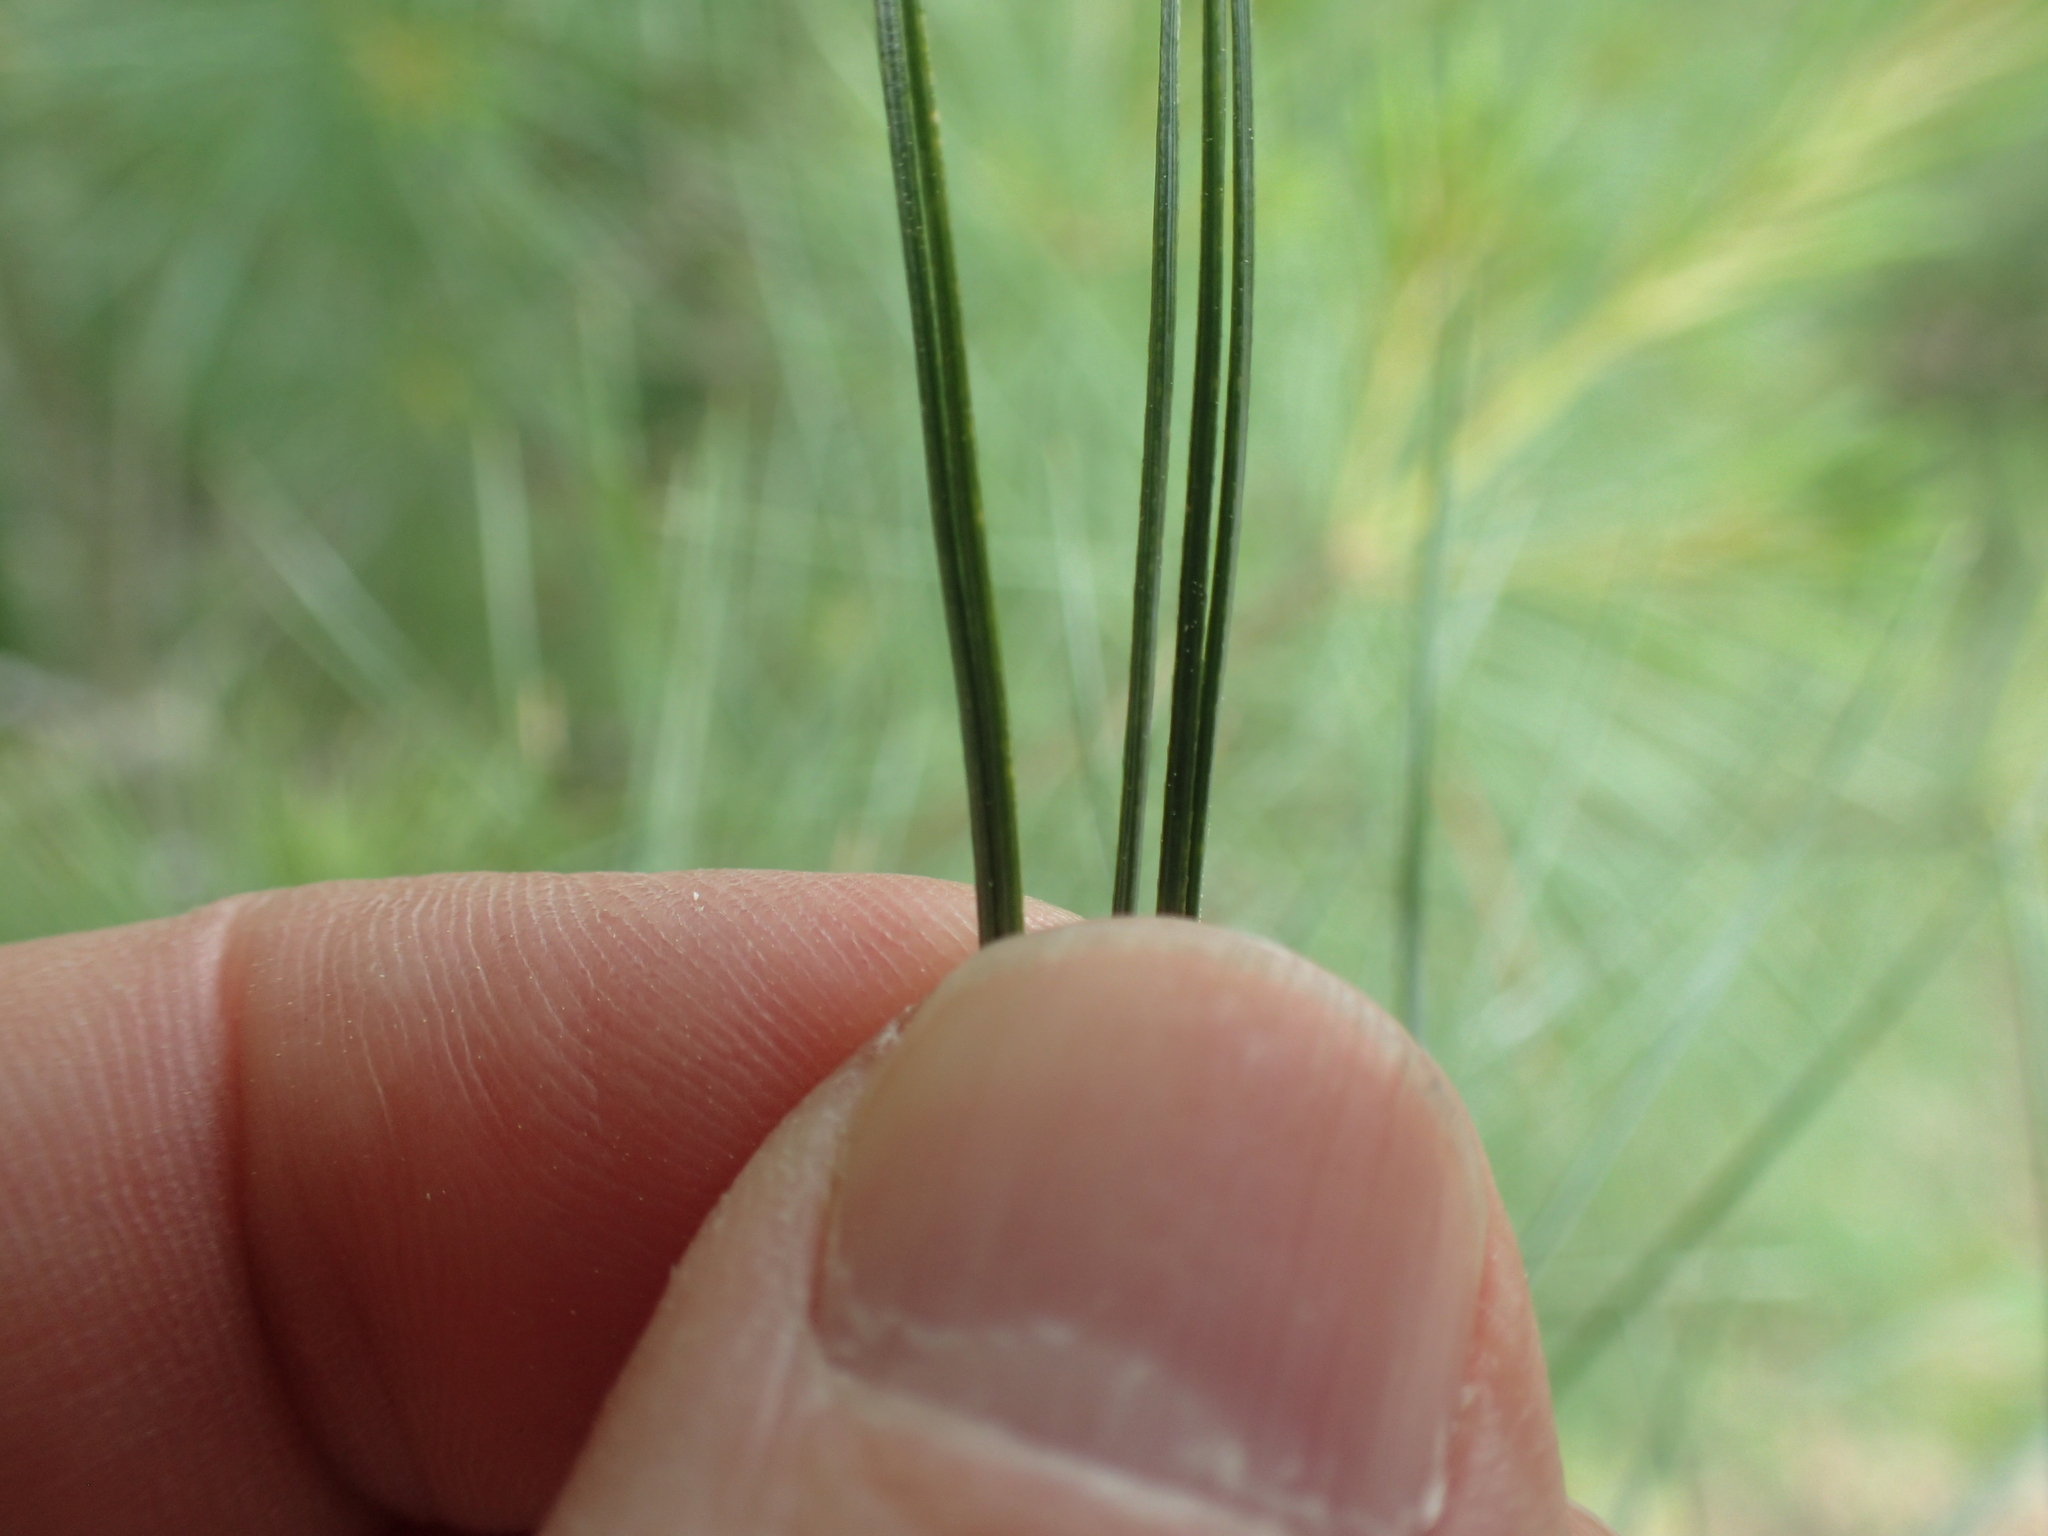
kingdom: Plantae
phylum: Tracheophyta
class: Pinopsida
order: Pinales
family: Pinaceae
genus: Pinus
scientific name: Pinus strobus
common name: Weymouth pine
